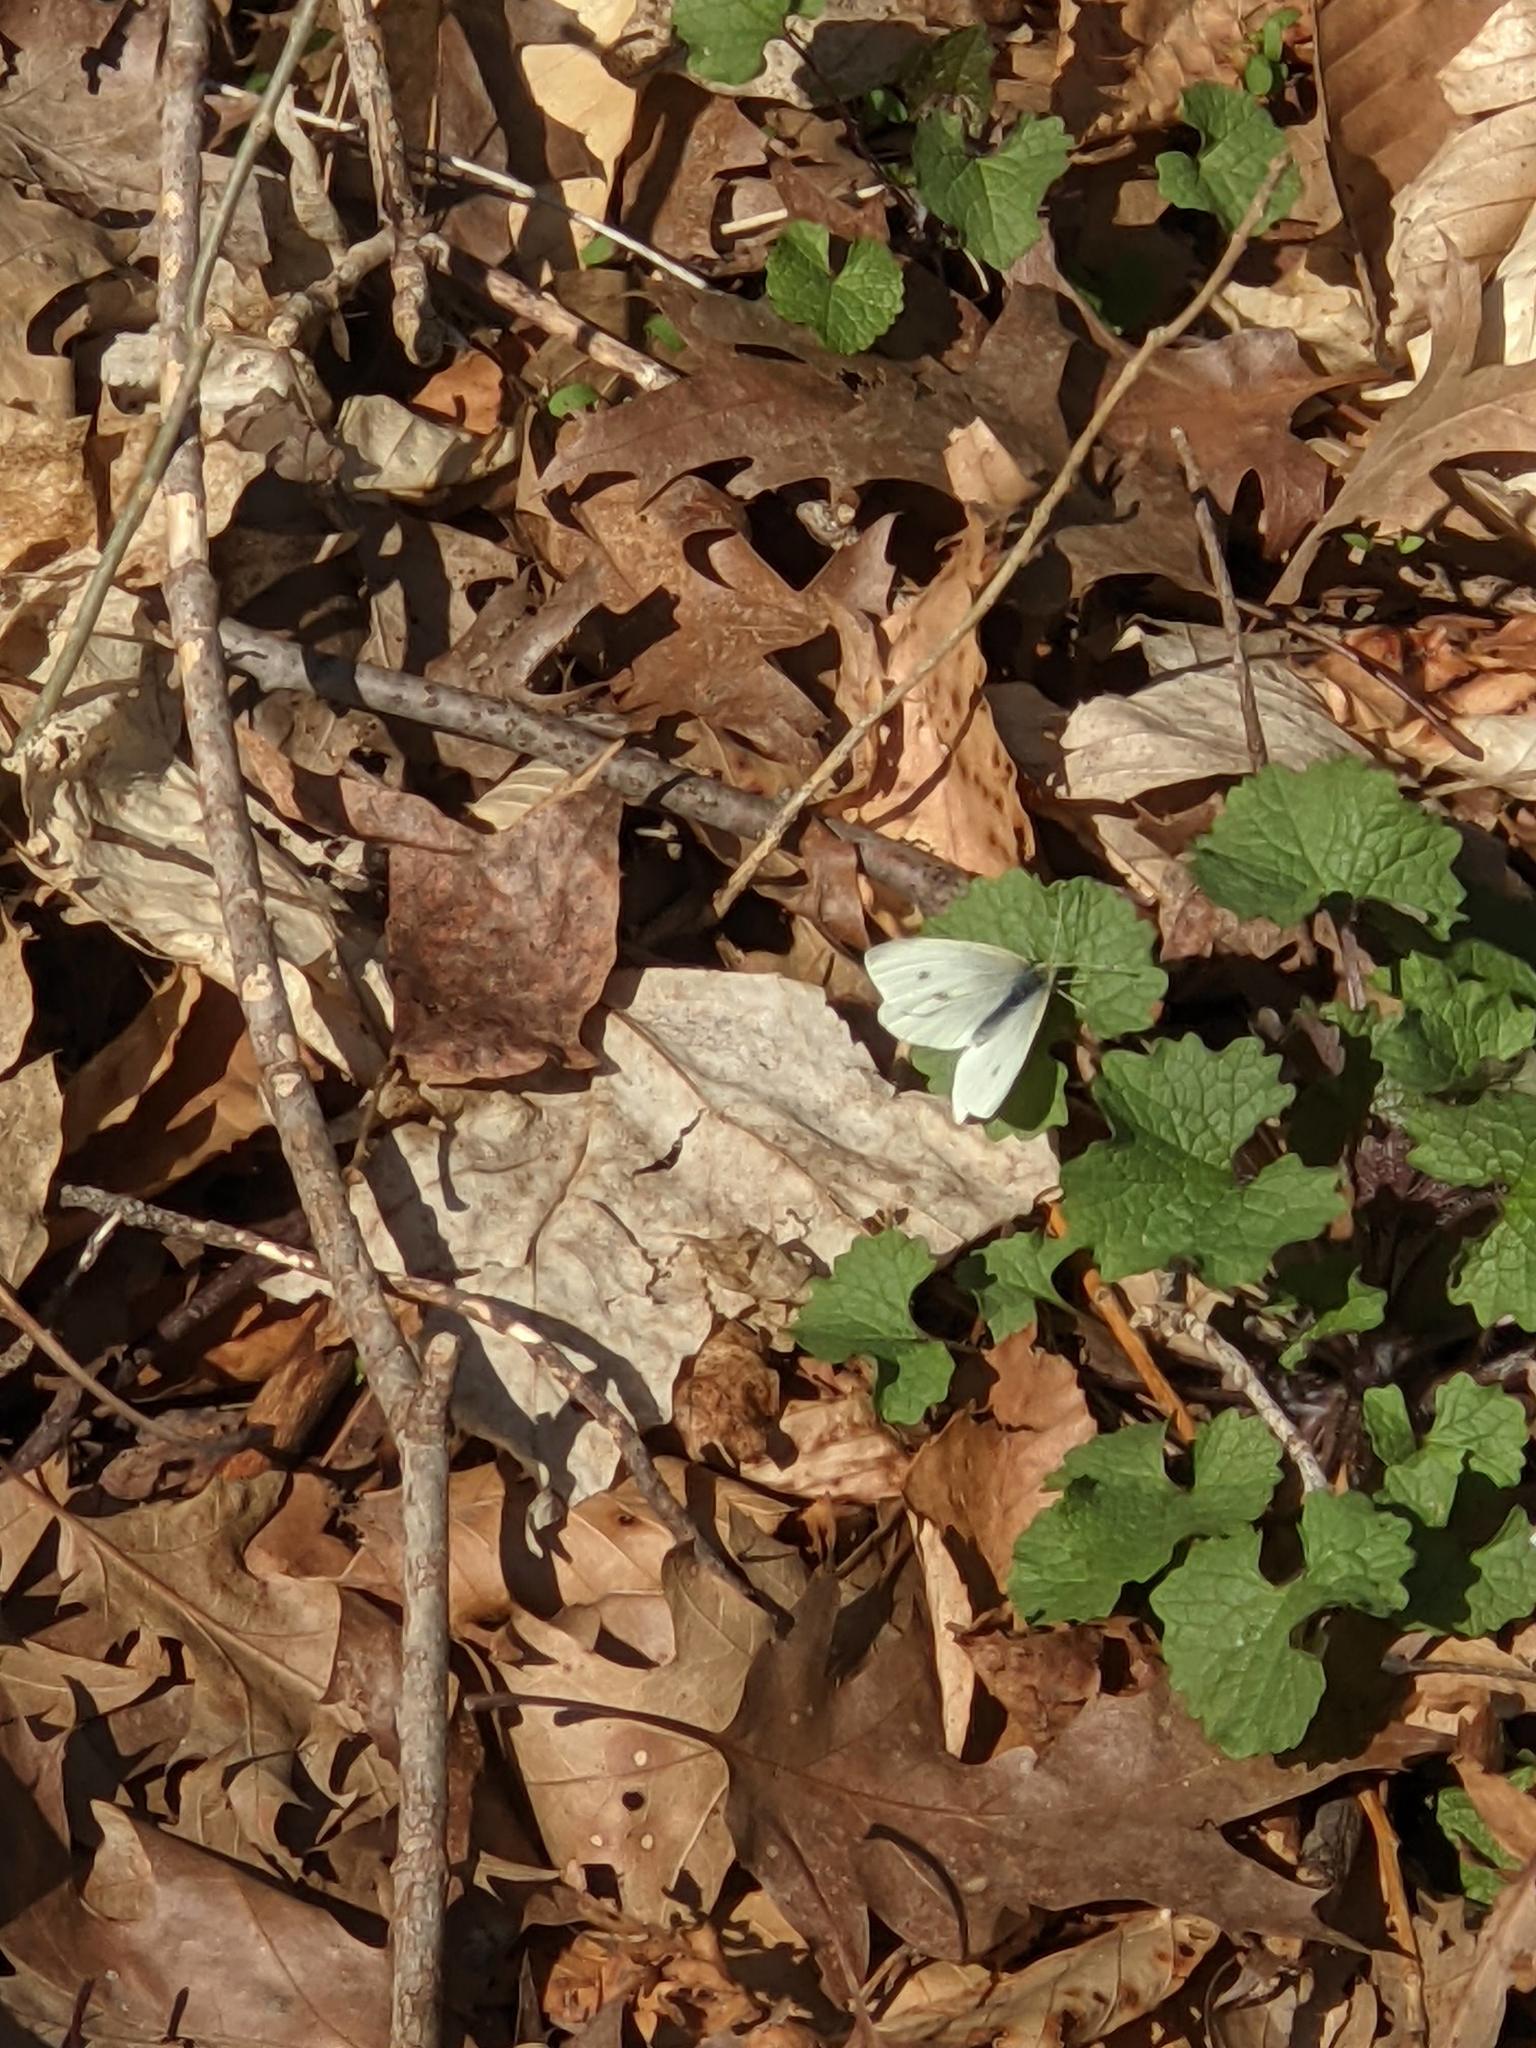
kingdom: Animalia
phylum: Arthropoda
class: Insecta
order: Lepidoptera
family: Pieridae
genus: Pieris
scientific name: Pieris rapae
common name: Small white
